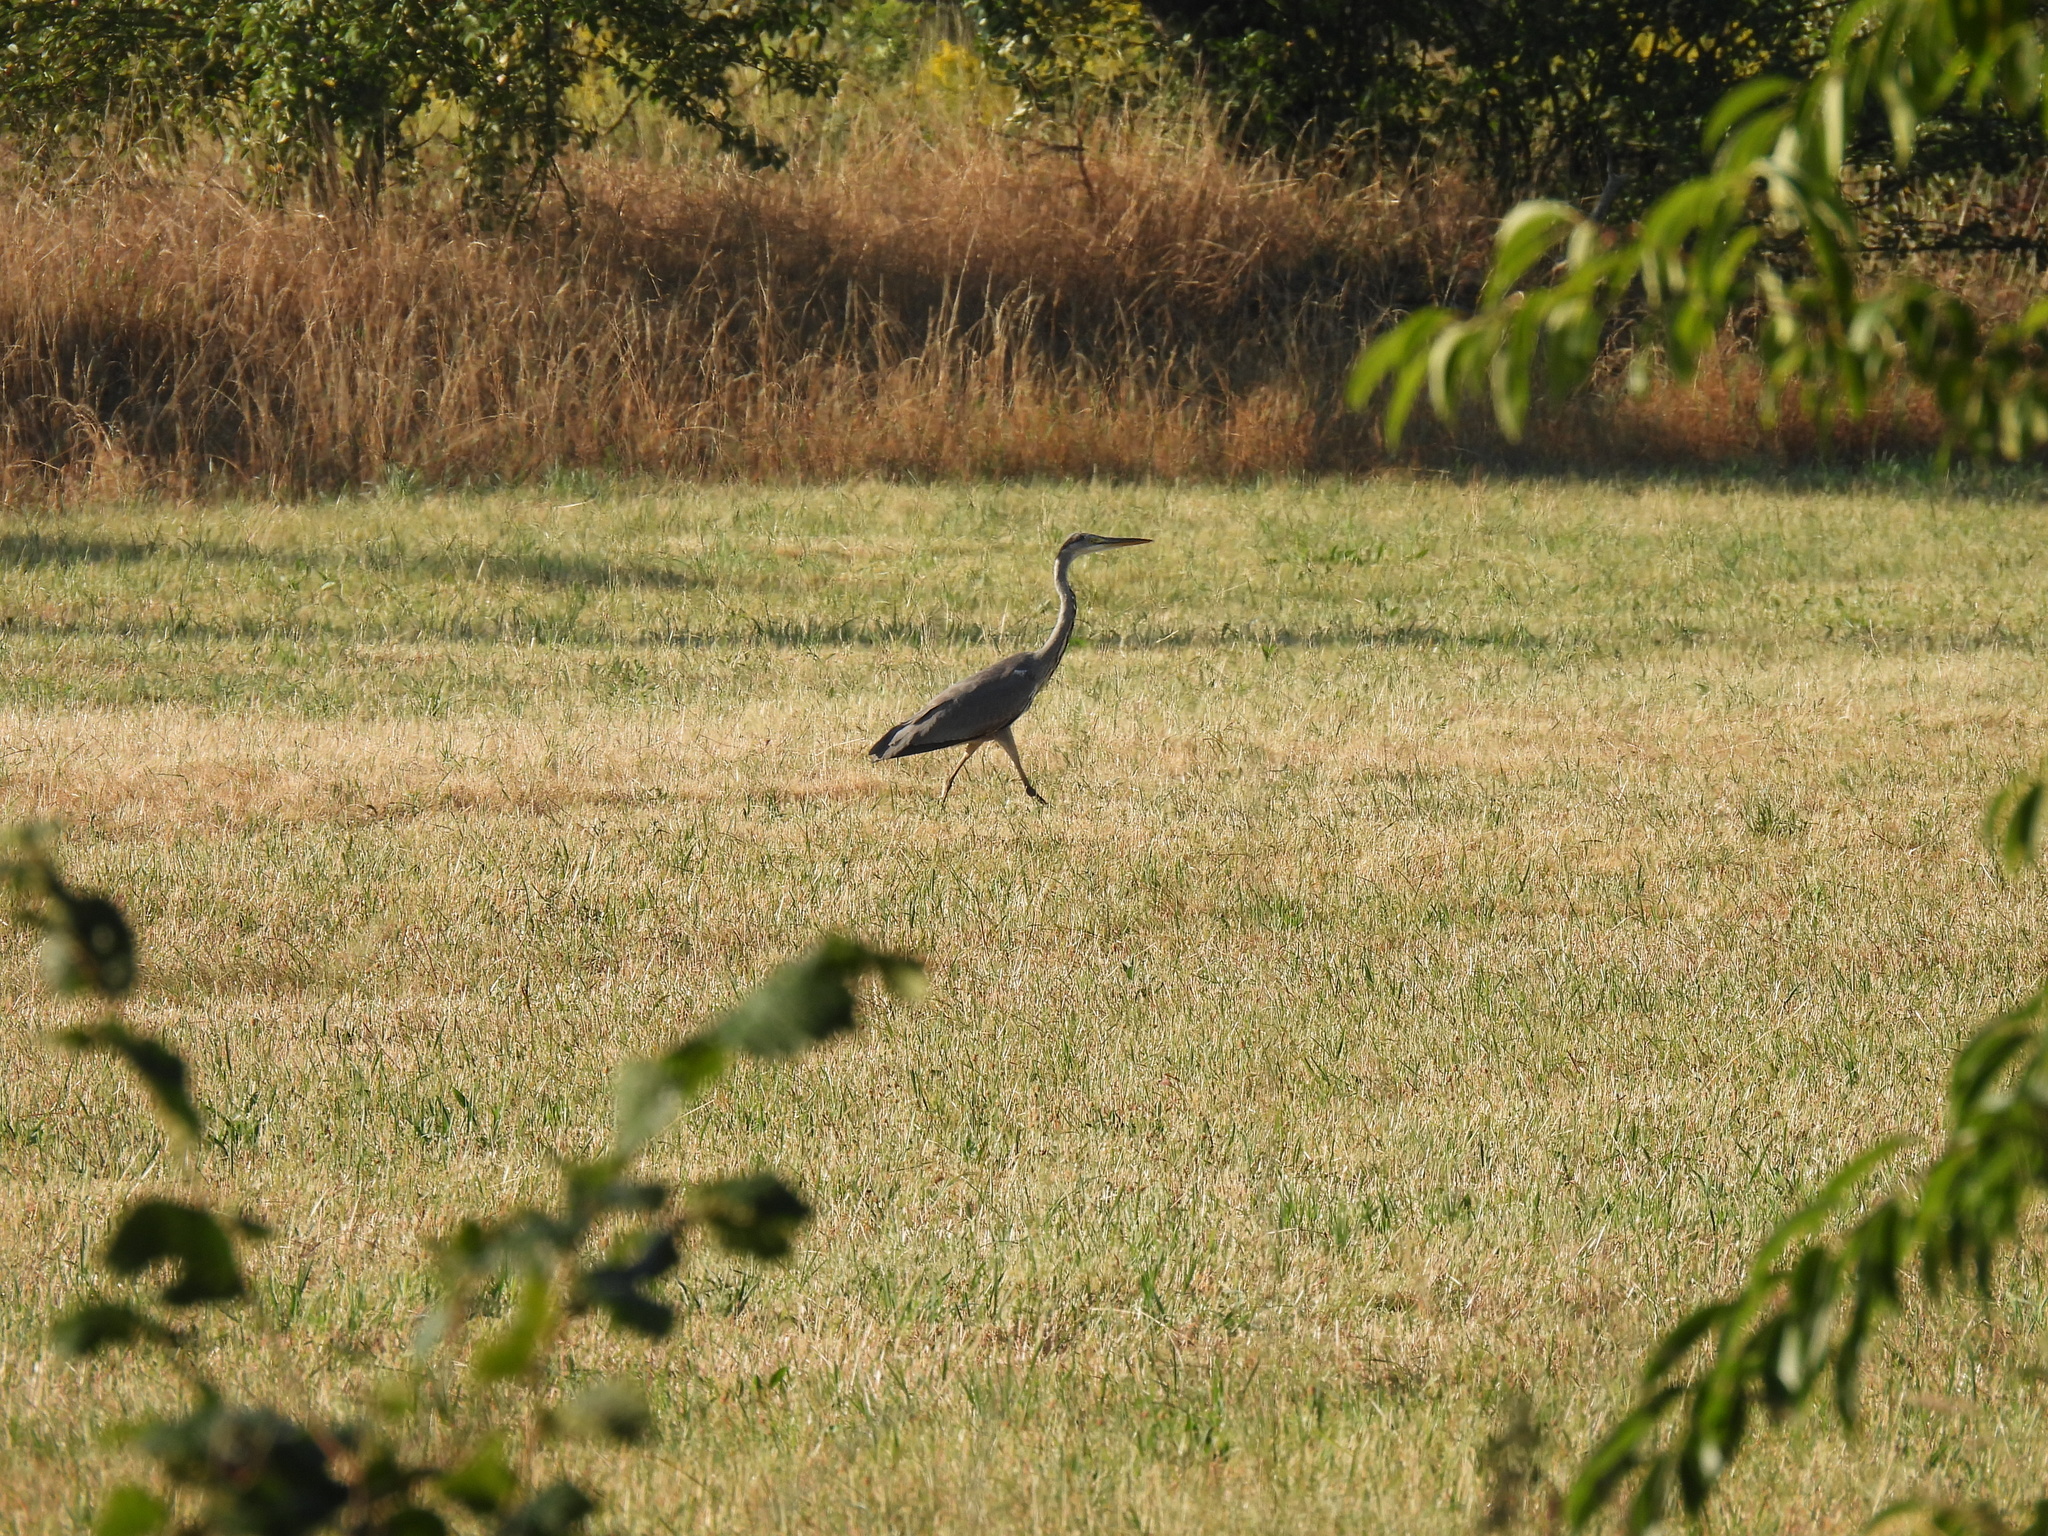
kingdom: Animalia
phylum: Chordata
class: Aves
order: Pelecaniformes
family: Ardeidae
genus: Ardea
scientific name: Ardea cinerea
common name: Grey heron
